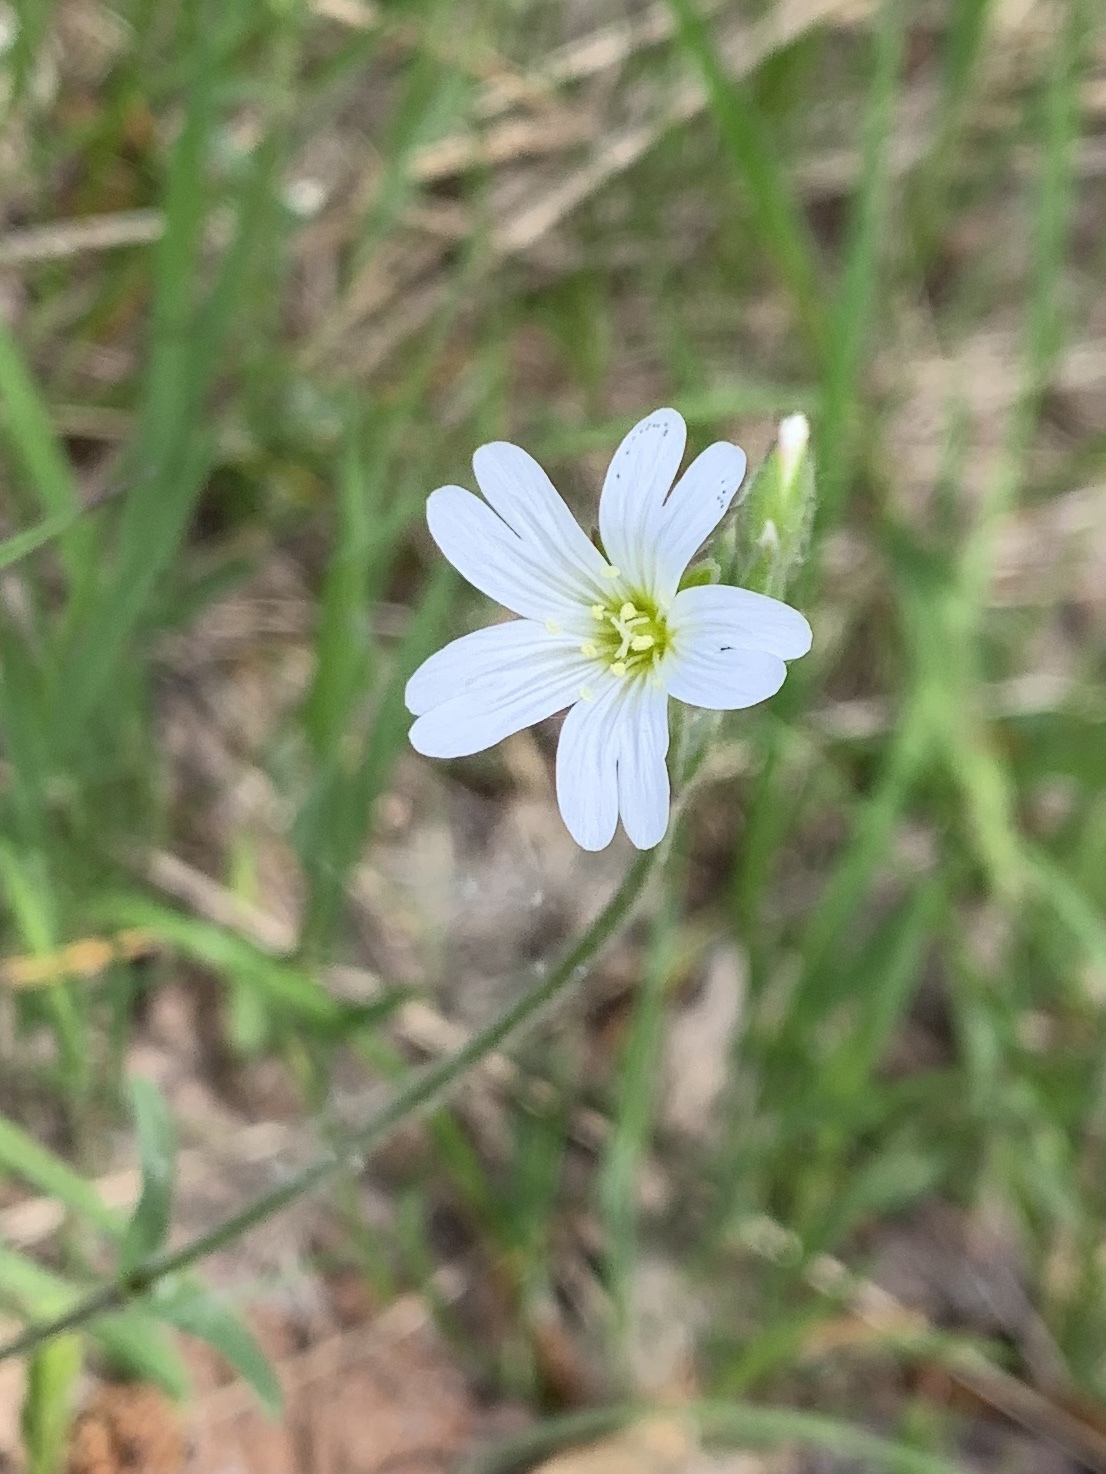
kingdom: Plantae
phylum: Tracheophyta
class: Magnoliopsida
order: Caryophyllales
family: Caryophyllaceae
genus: Cerastium
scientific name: Cerastium arvense
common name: Field mouse-ear
